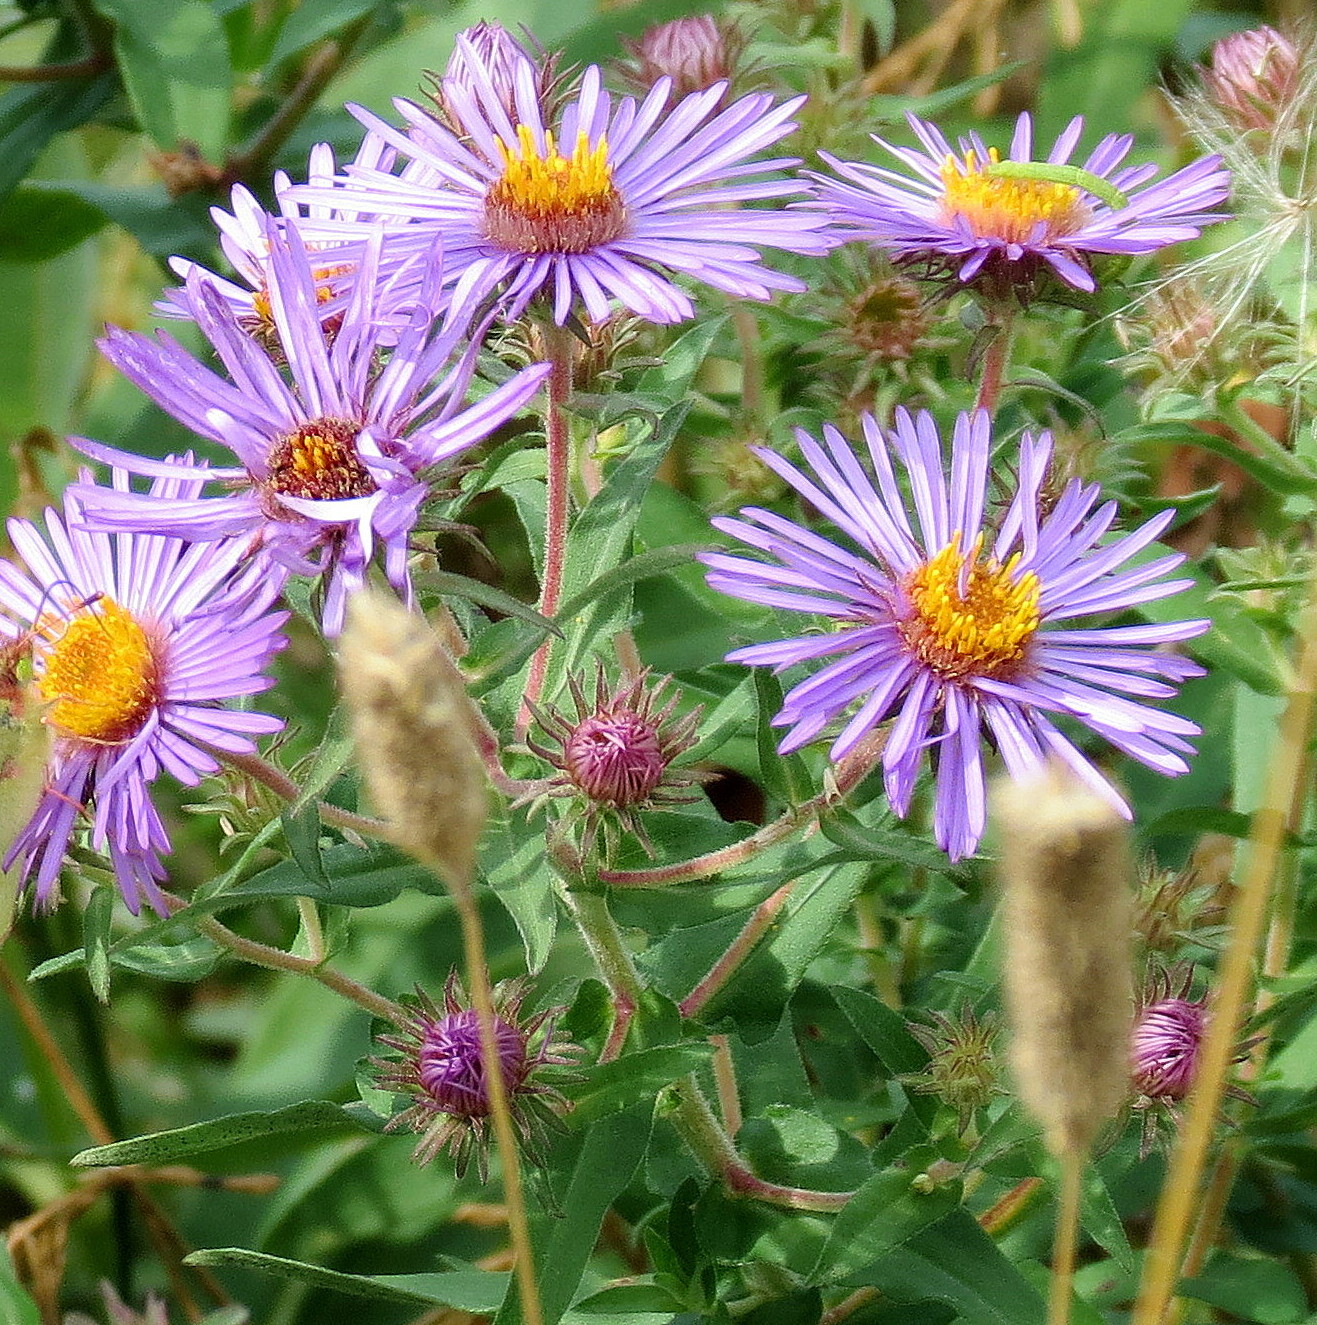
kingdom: Plantae
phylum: Tracheophyta
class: Magnoliopsida
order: Asterales
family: Asteraceae
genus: Symphyotrichum
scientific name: Symphyotrichum novae-angliae
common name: Michaelmas daisy
